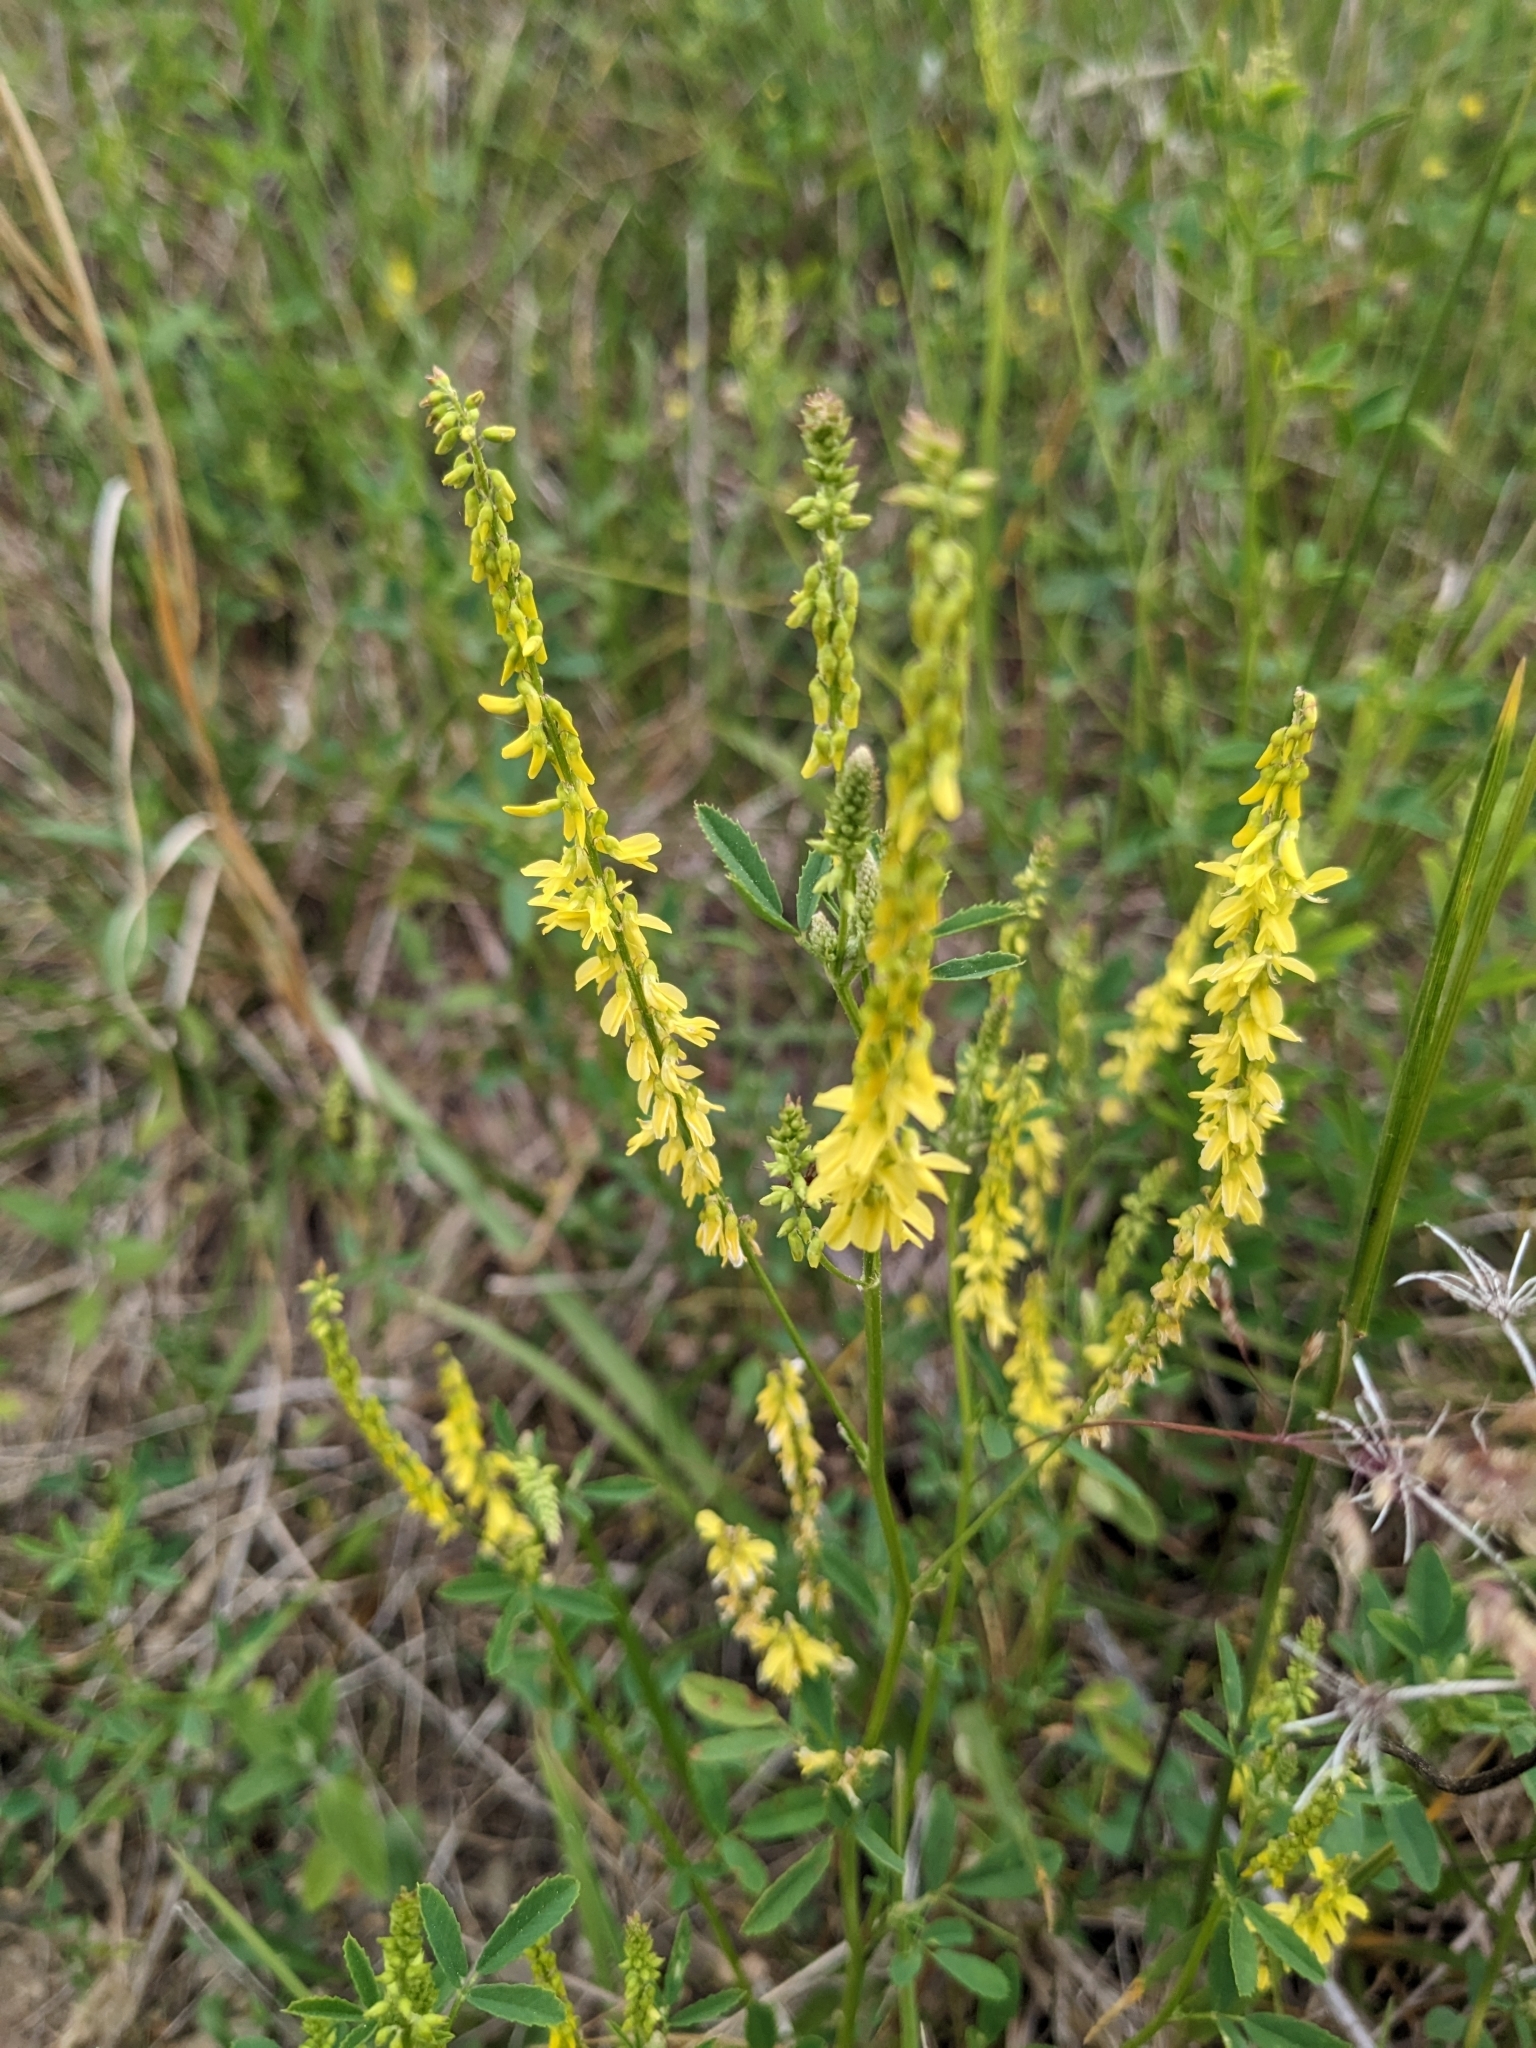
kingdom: Plantae
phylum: Tracheophyta
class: Magnoliopsida
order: Fabales
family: Fabaceae
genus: Melilotus
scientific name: Melilotus officinalis
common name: Sweetclover
